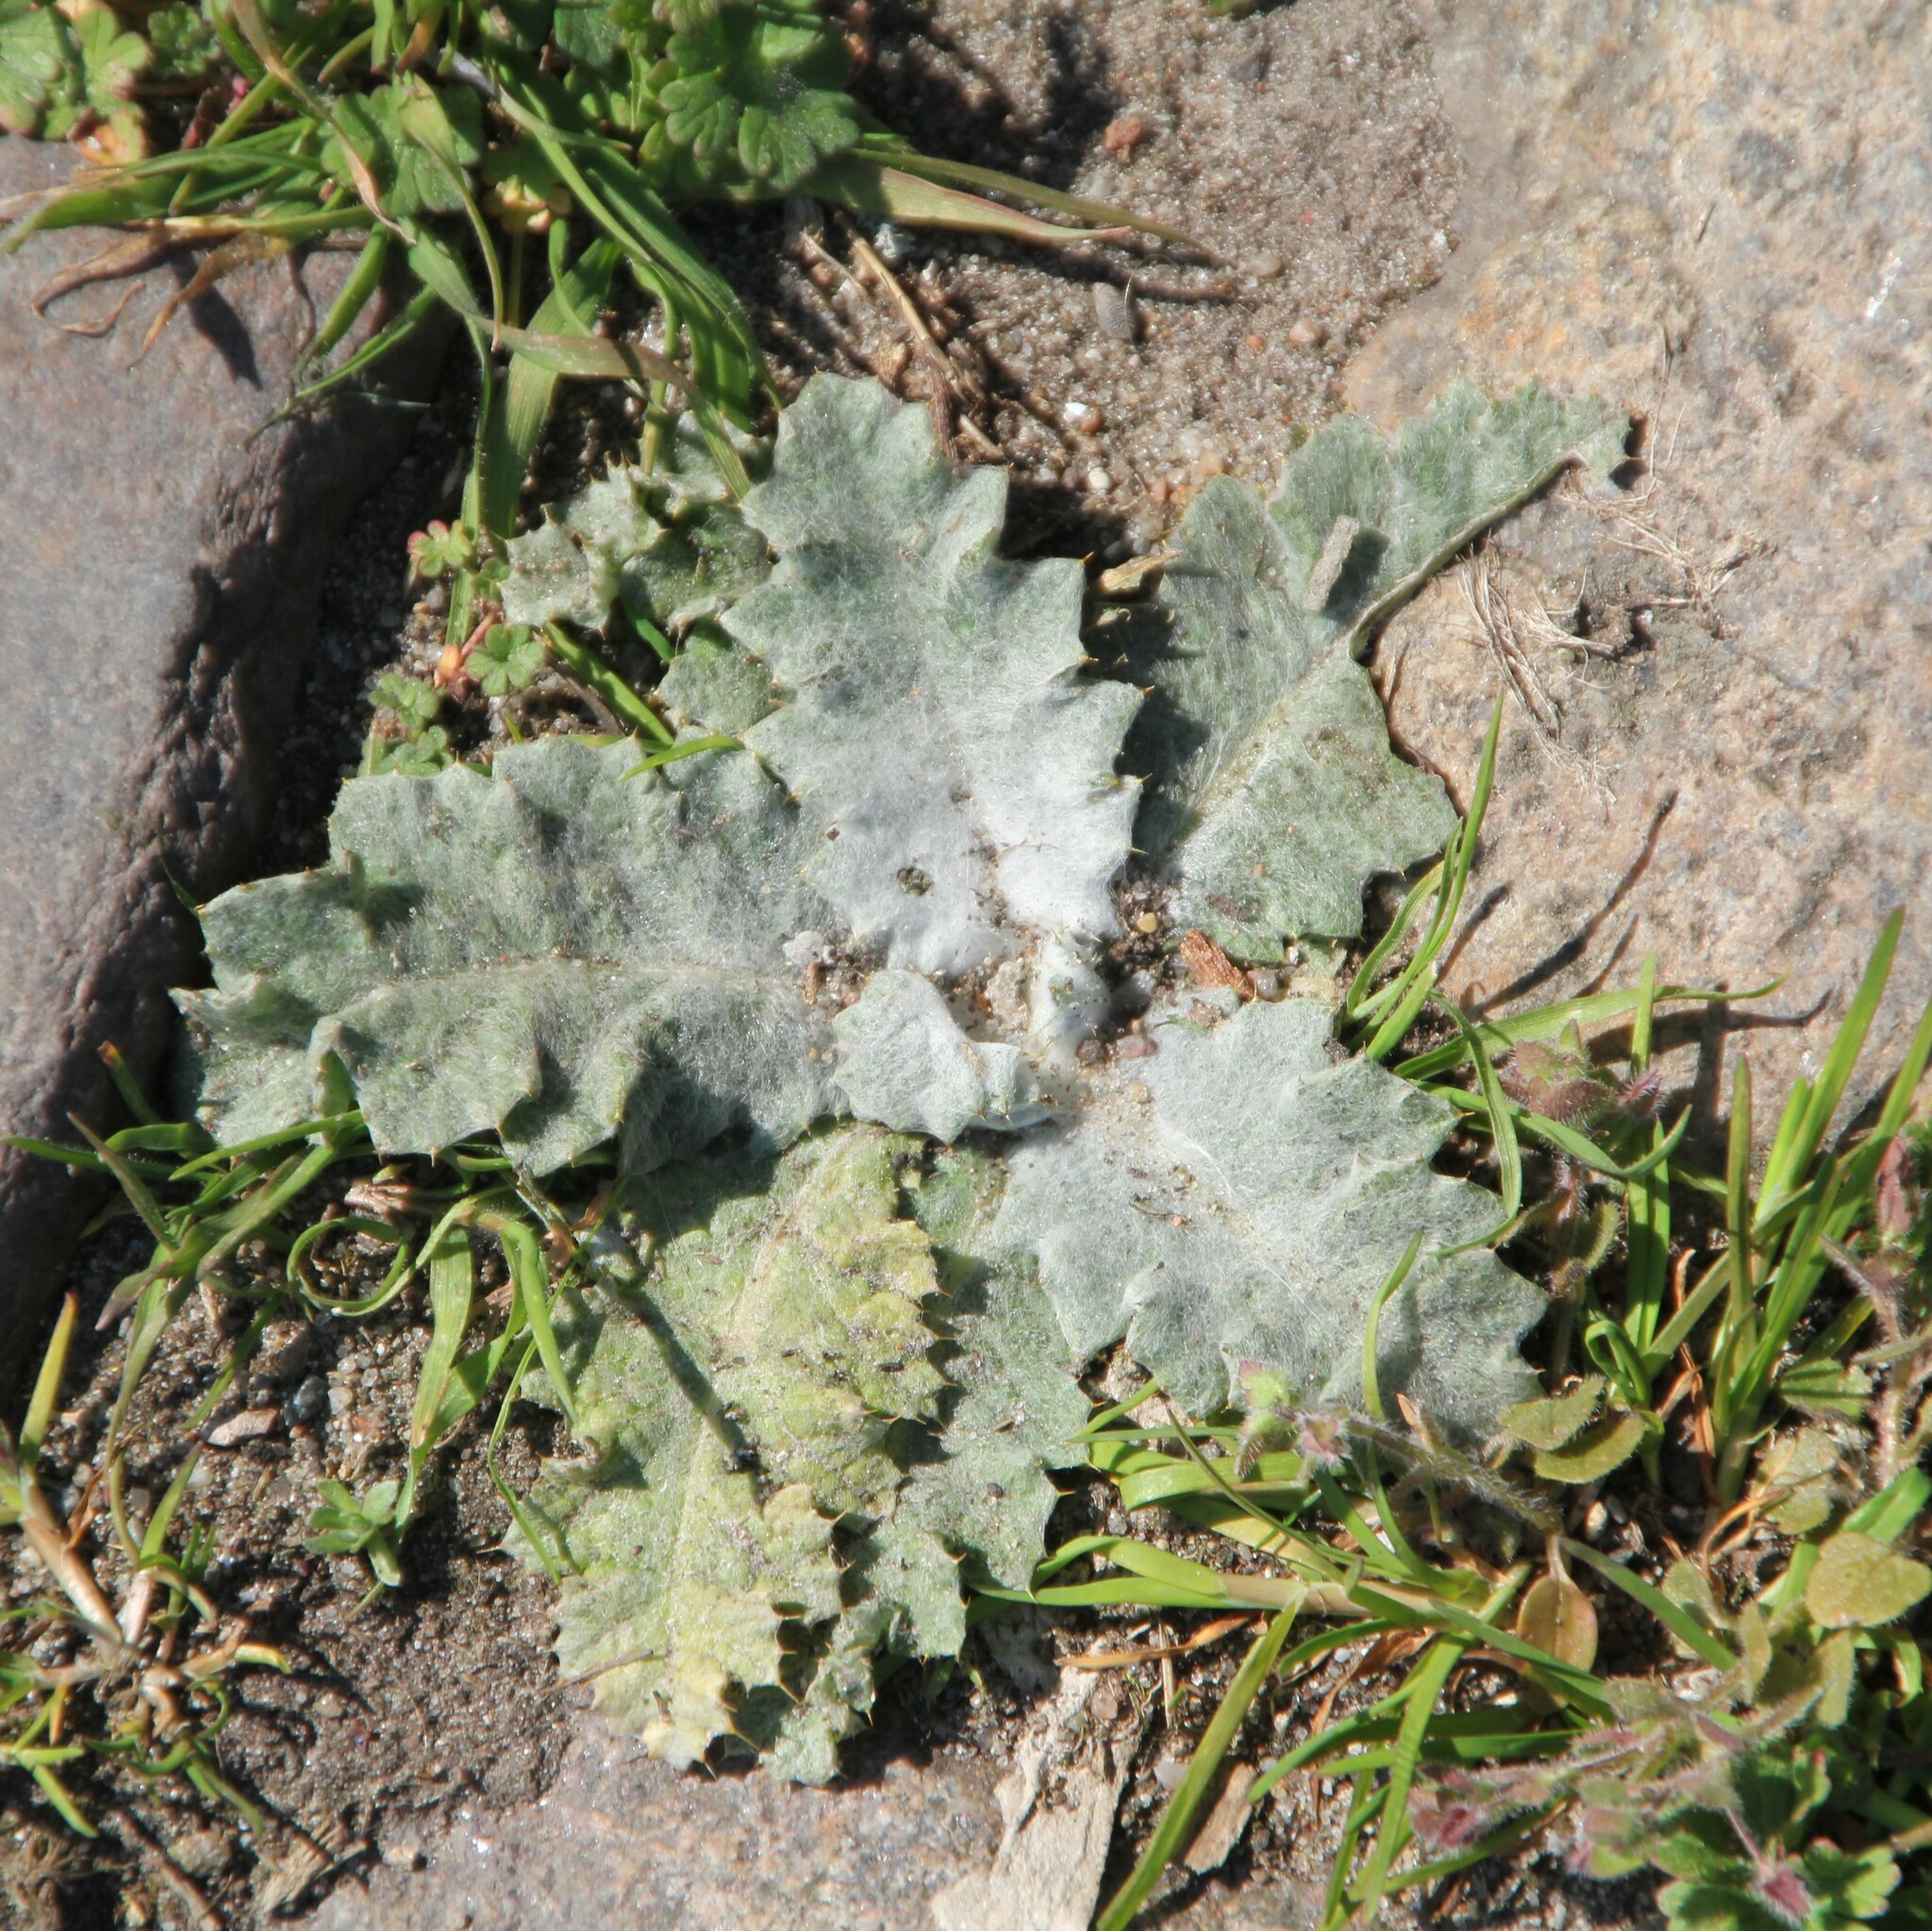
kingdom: Plantae
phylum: Tracheophyta
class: Magnoliopsida
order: Asterales
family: Asteraceae
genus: Onopordum
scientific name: Onopordum acanthium
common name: Scotch thistle
